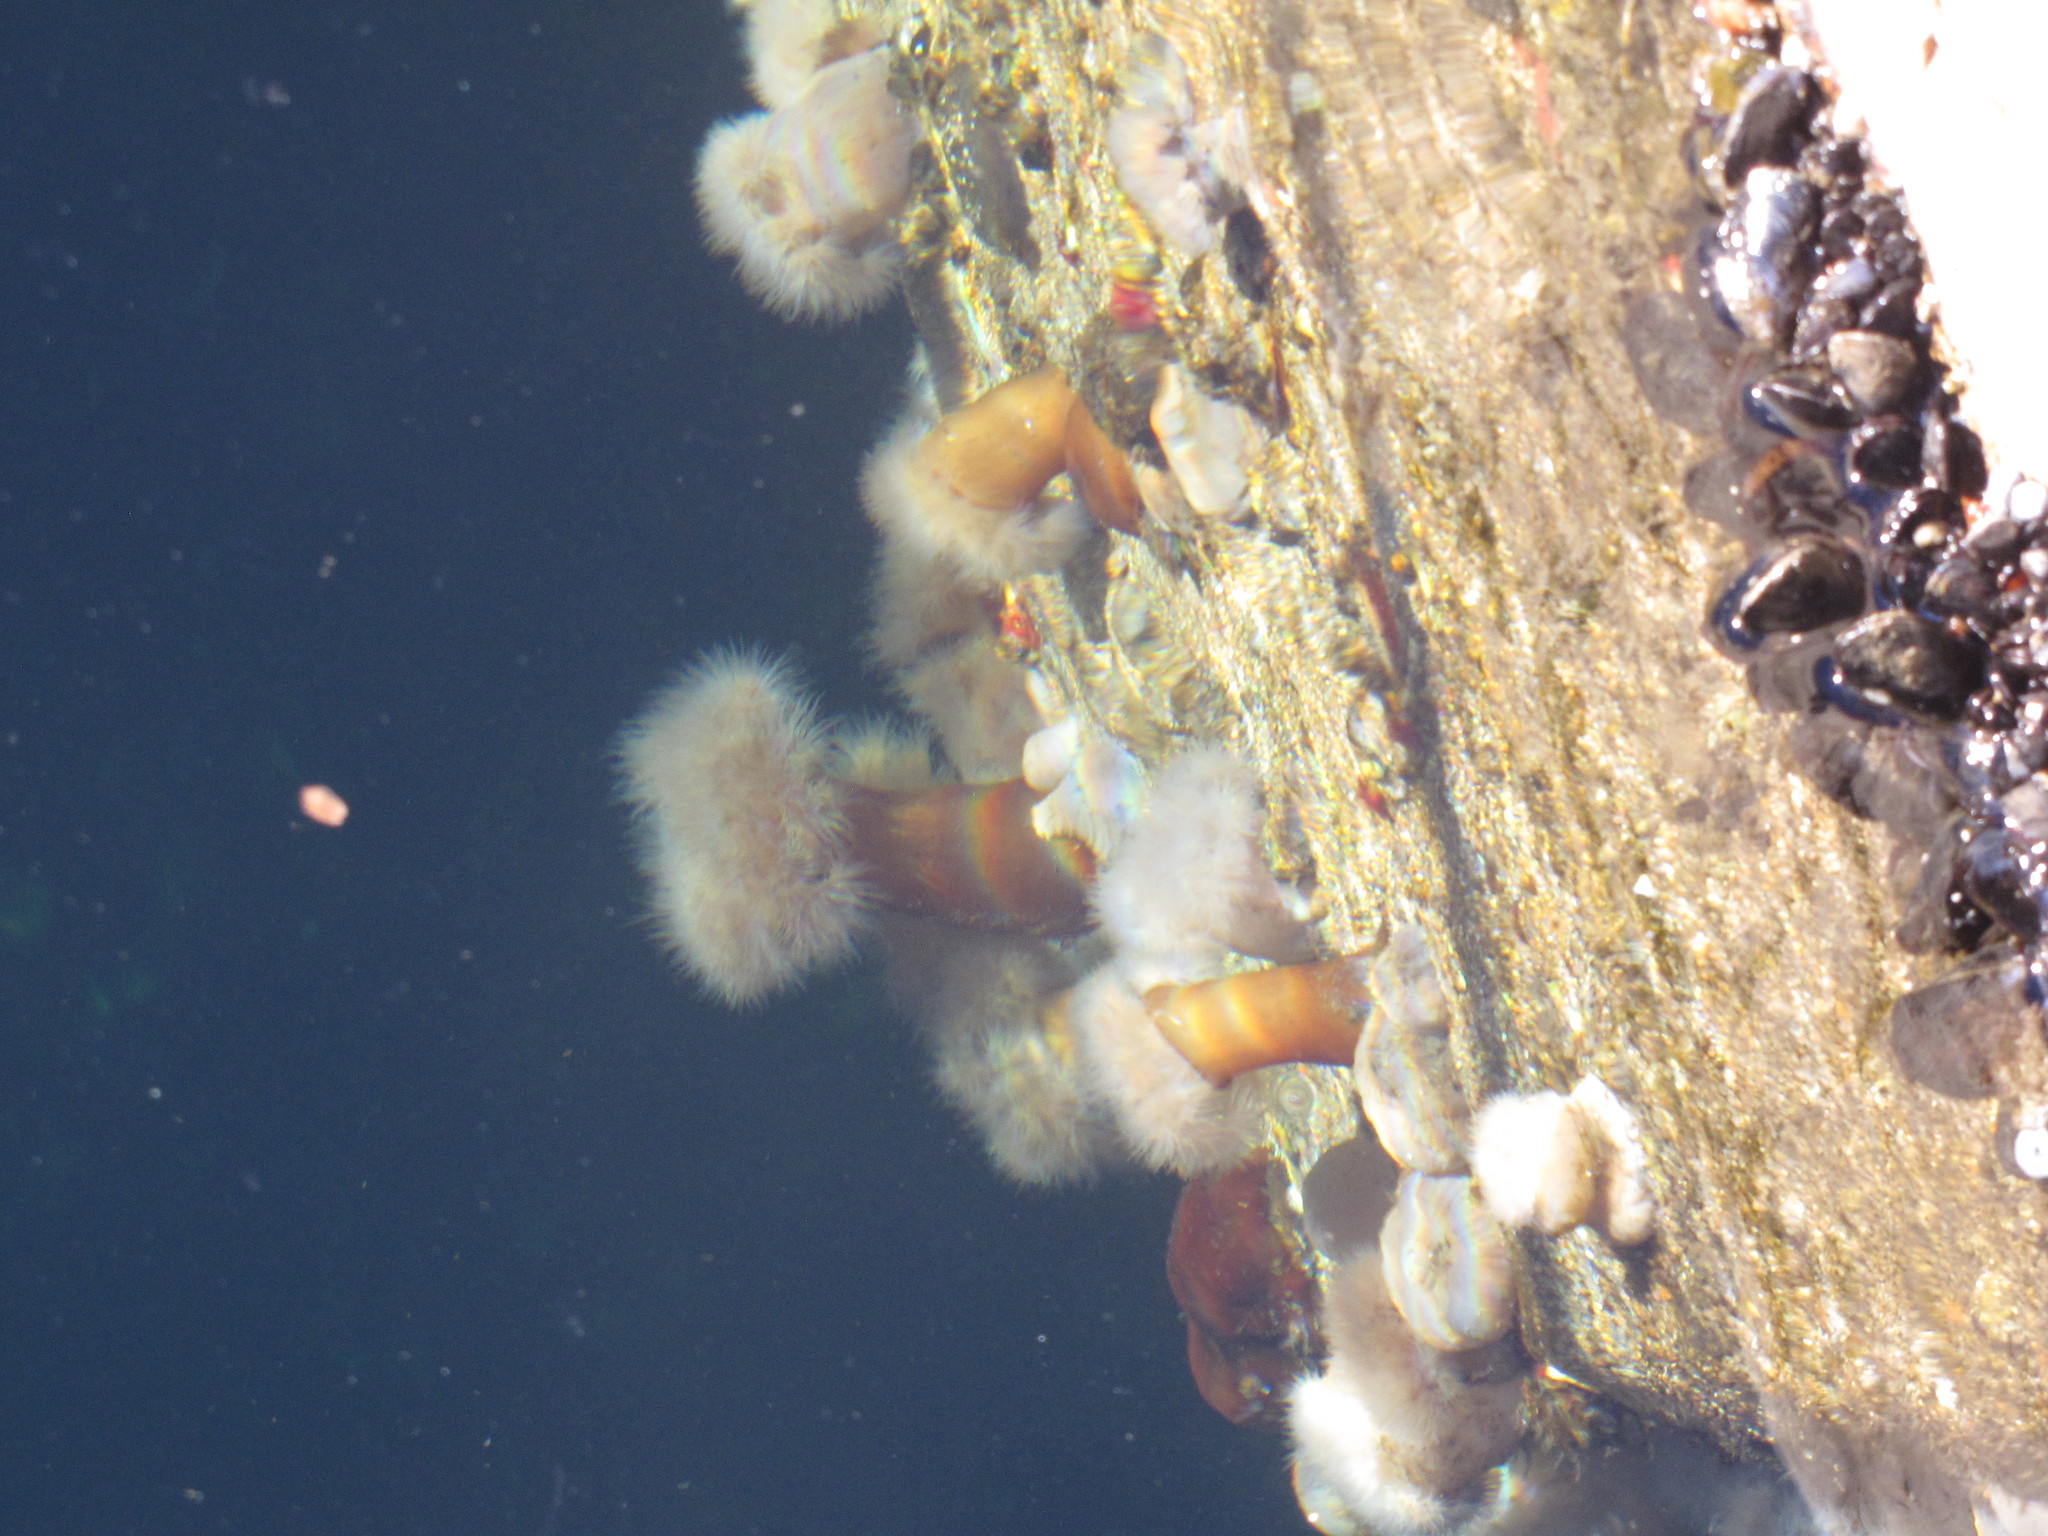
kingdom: Animalia
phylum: Cnidaria
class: Anthozoa
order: Actiniaria
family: Metridiidae
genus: Metridium
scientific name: Metridium senile
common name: Clonal plumose anemone
